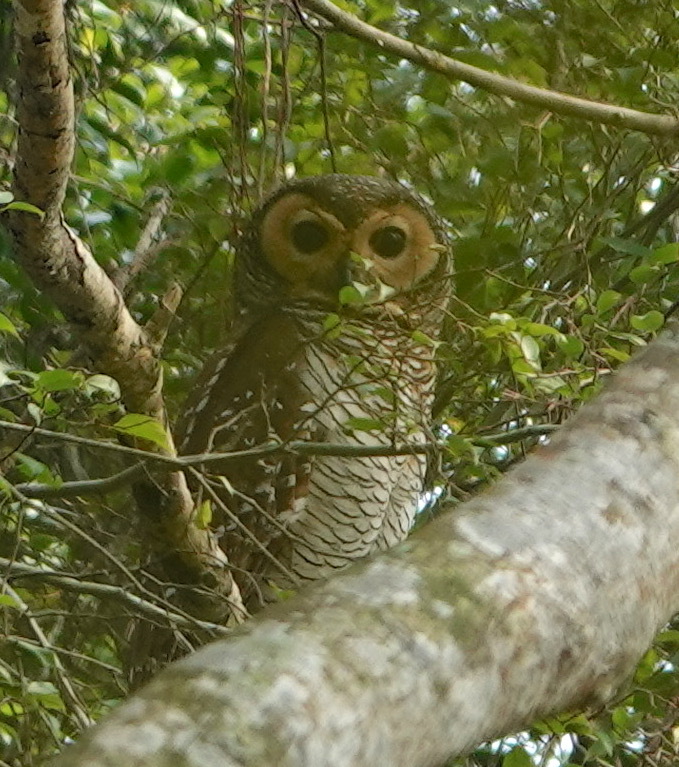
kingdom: Animalia
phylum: Chordata
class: Aves
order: Strigiformes
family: Strigidae
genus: Strix
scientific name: Strix seloputo
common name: Spotted wood owl
